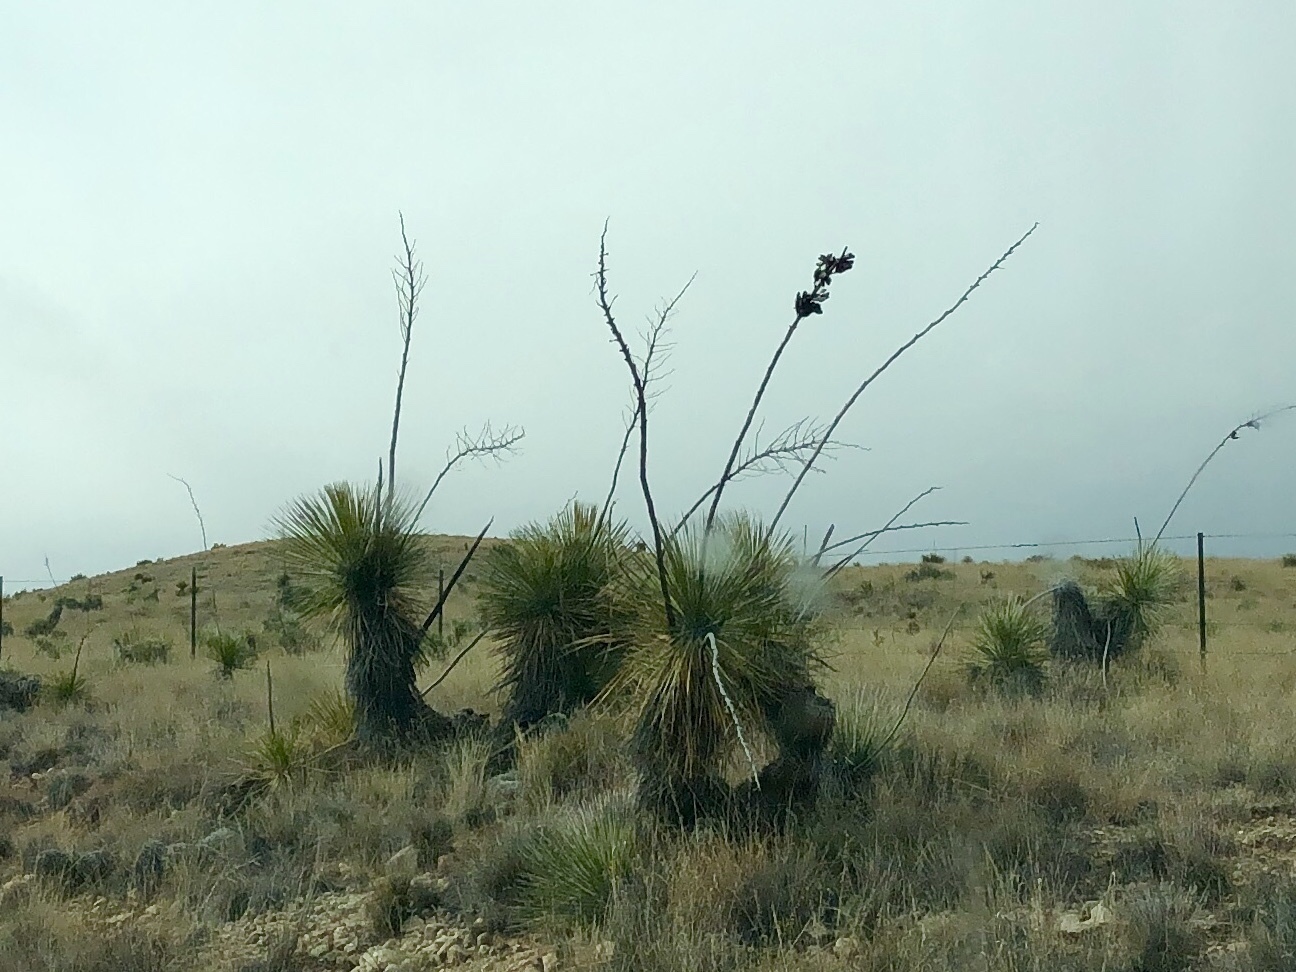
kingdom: Plantae
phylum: Tracheophyta
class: Liliopsida
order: Asparagales
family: Asparagaceae
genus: Yucca
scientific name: Yucca elata
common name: Palmella
